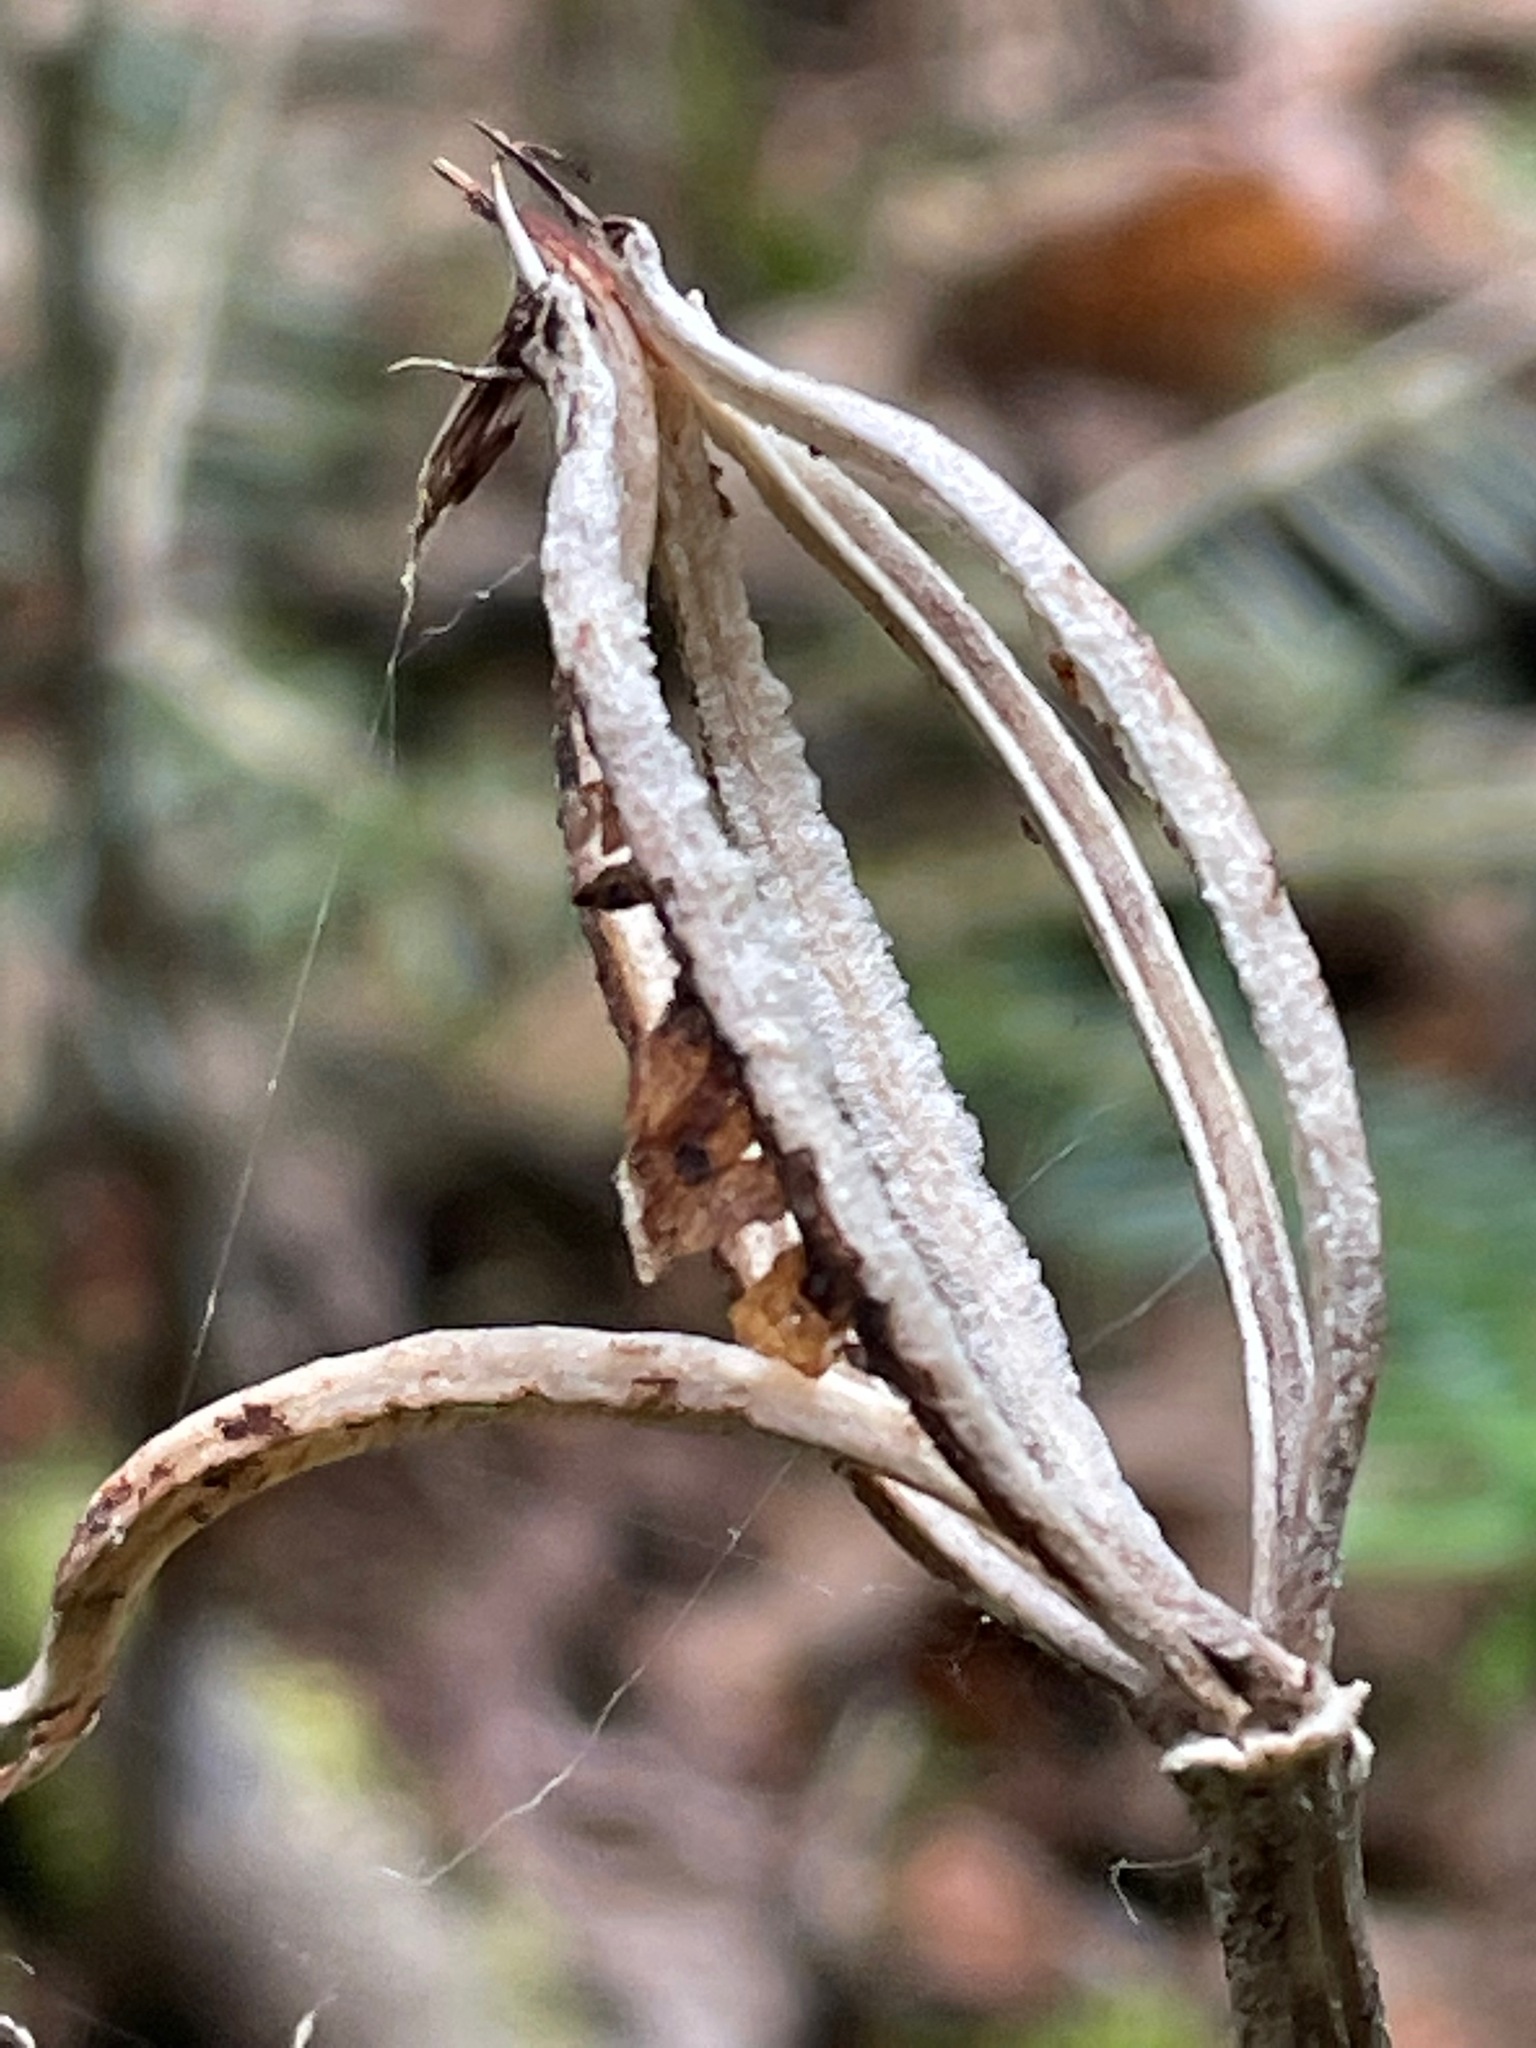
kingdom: Plantae
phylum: Tracheophyta
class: Liliopsida
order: Asparagales
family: Orchidaceae
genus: Cypripedium
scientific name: Cypripedium acaule
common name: Pink lady's-slipper
